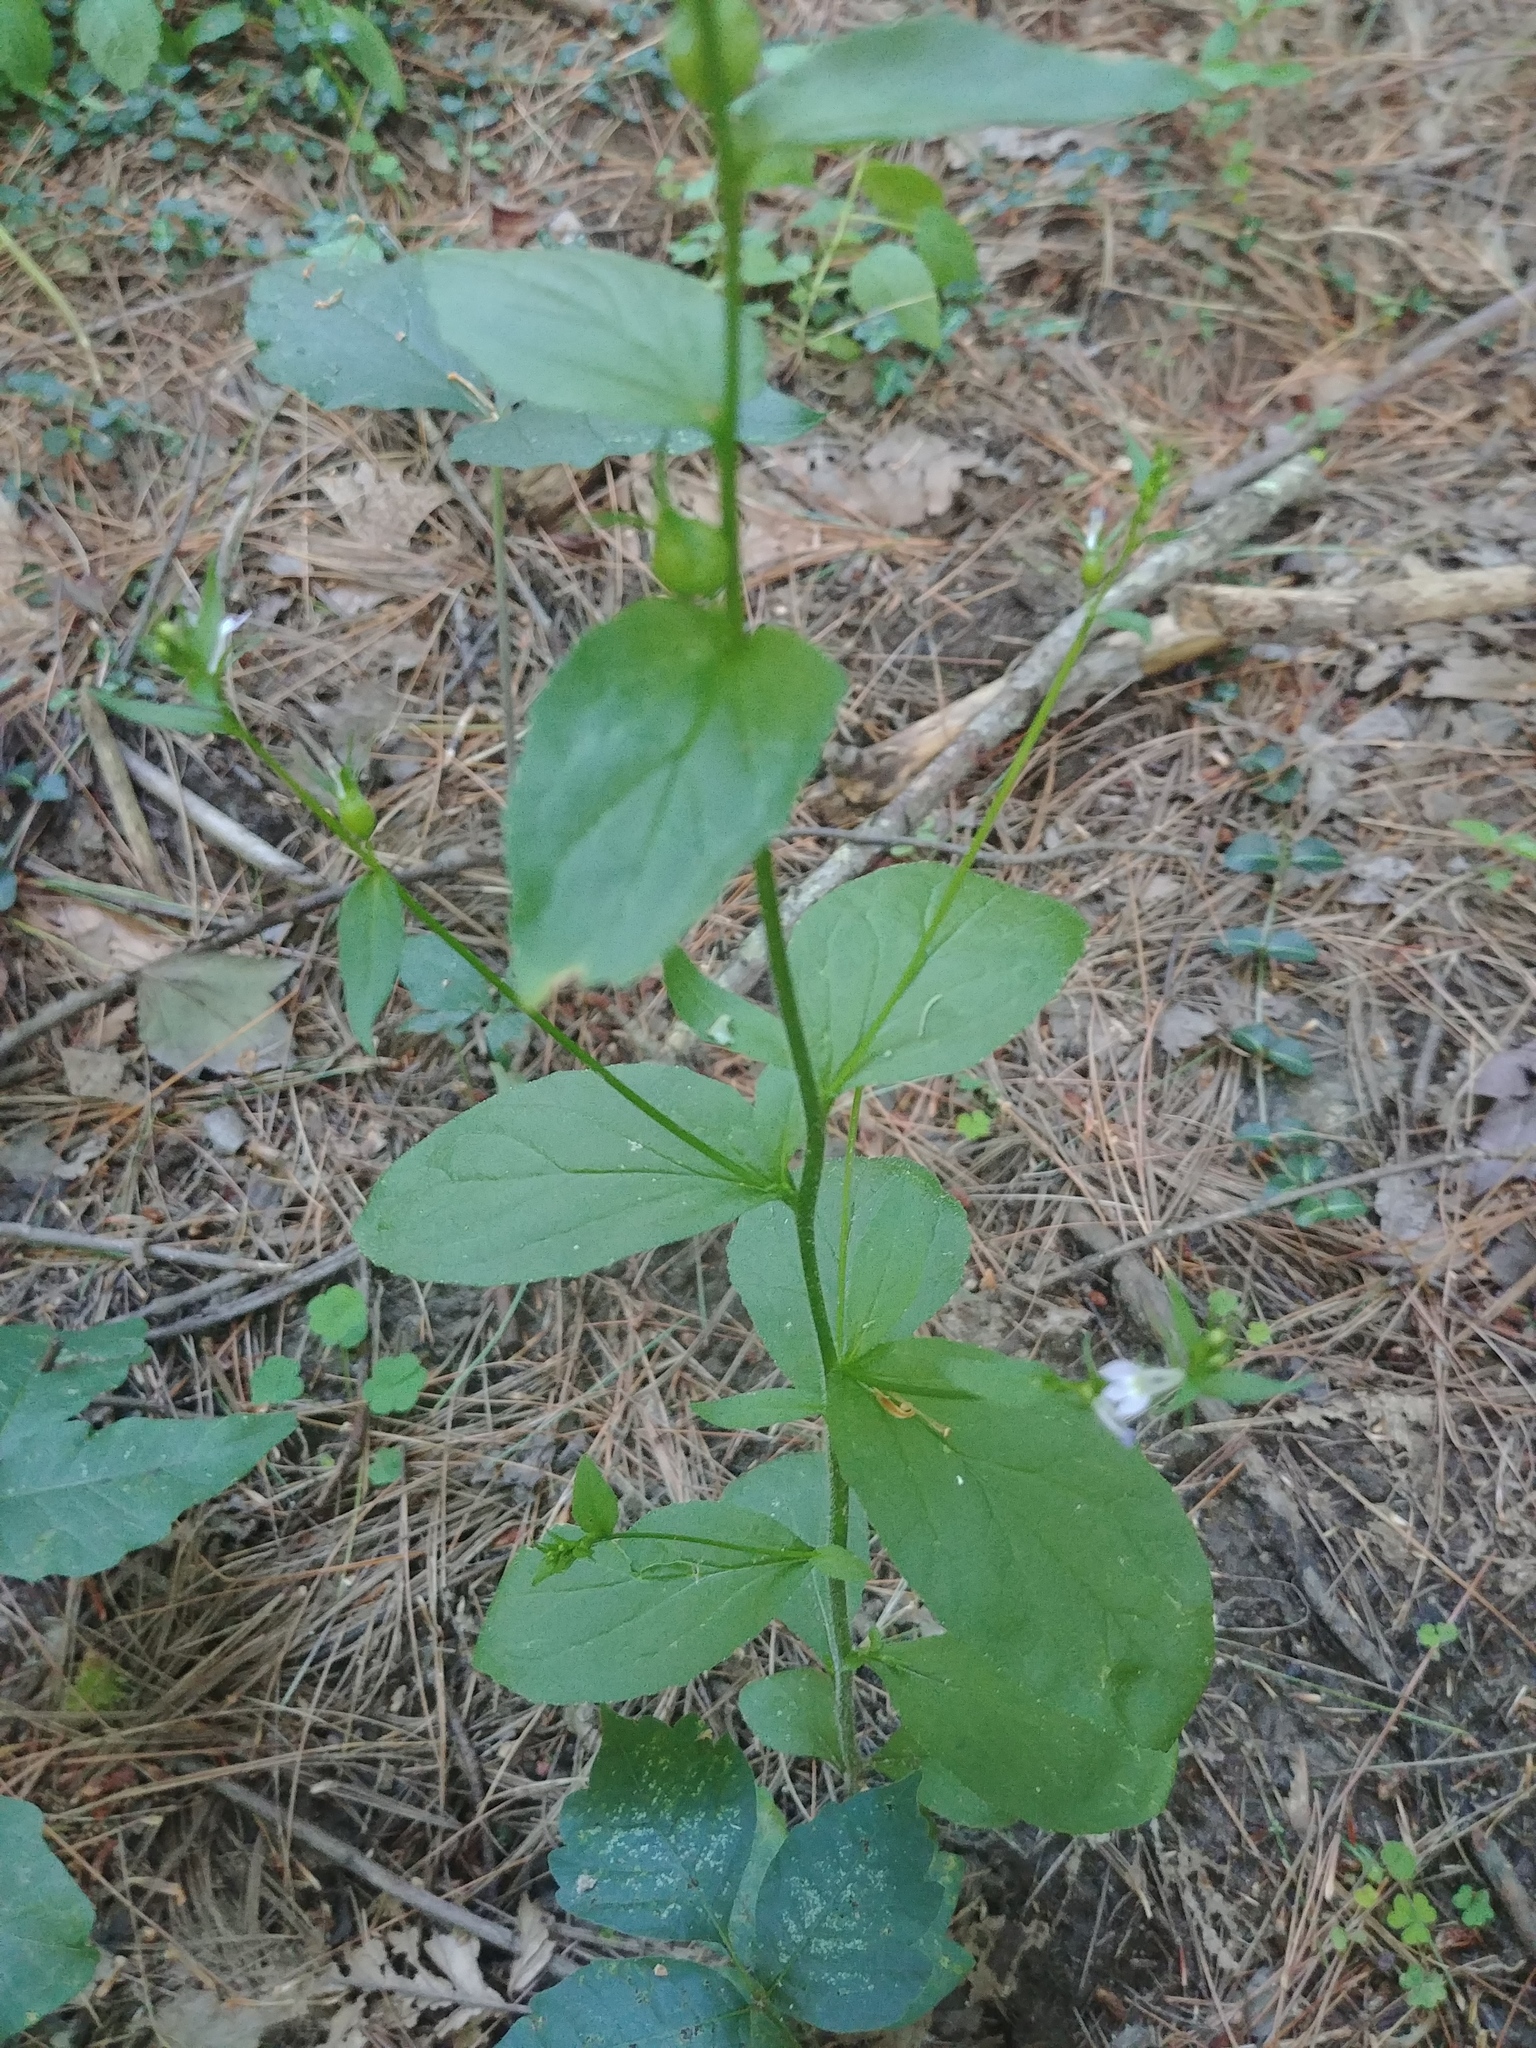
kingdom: Plantae
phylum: Tracheophyta
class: Magnoliopsida
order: Asterales
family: Campanulaceae
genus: Lobelia
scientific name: Lobelia inflata
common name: Indian tobacco
